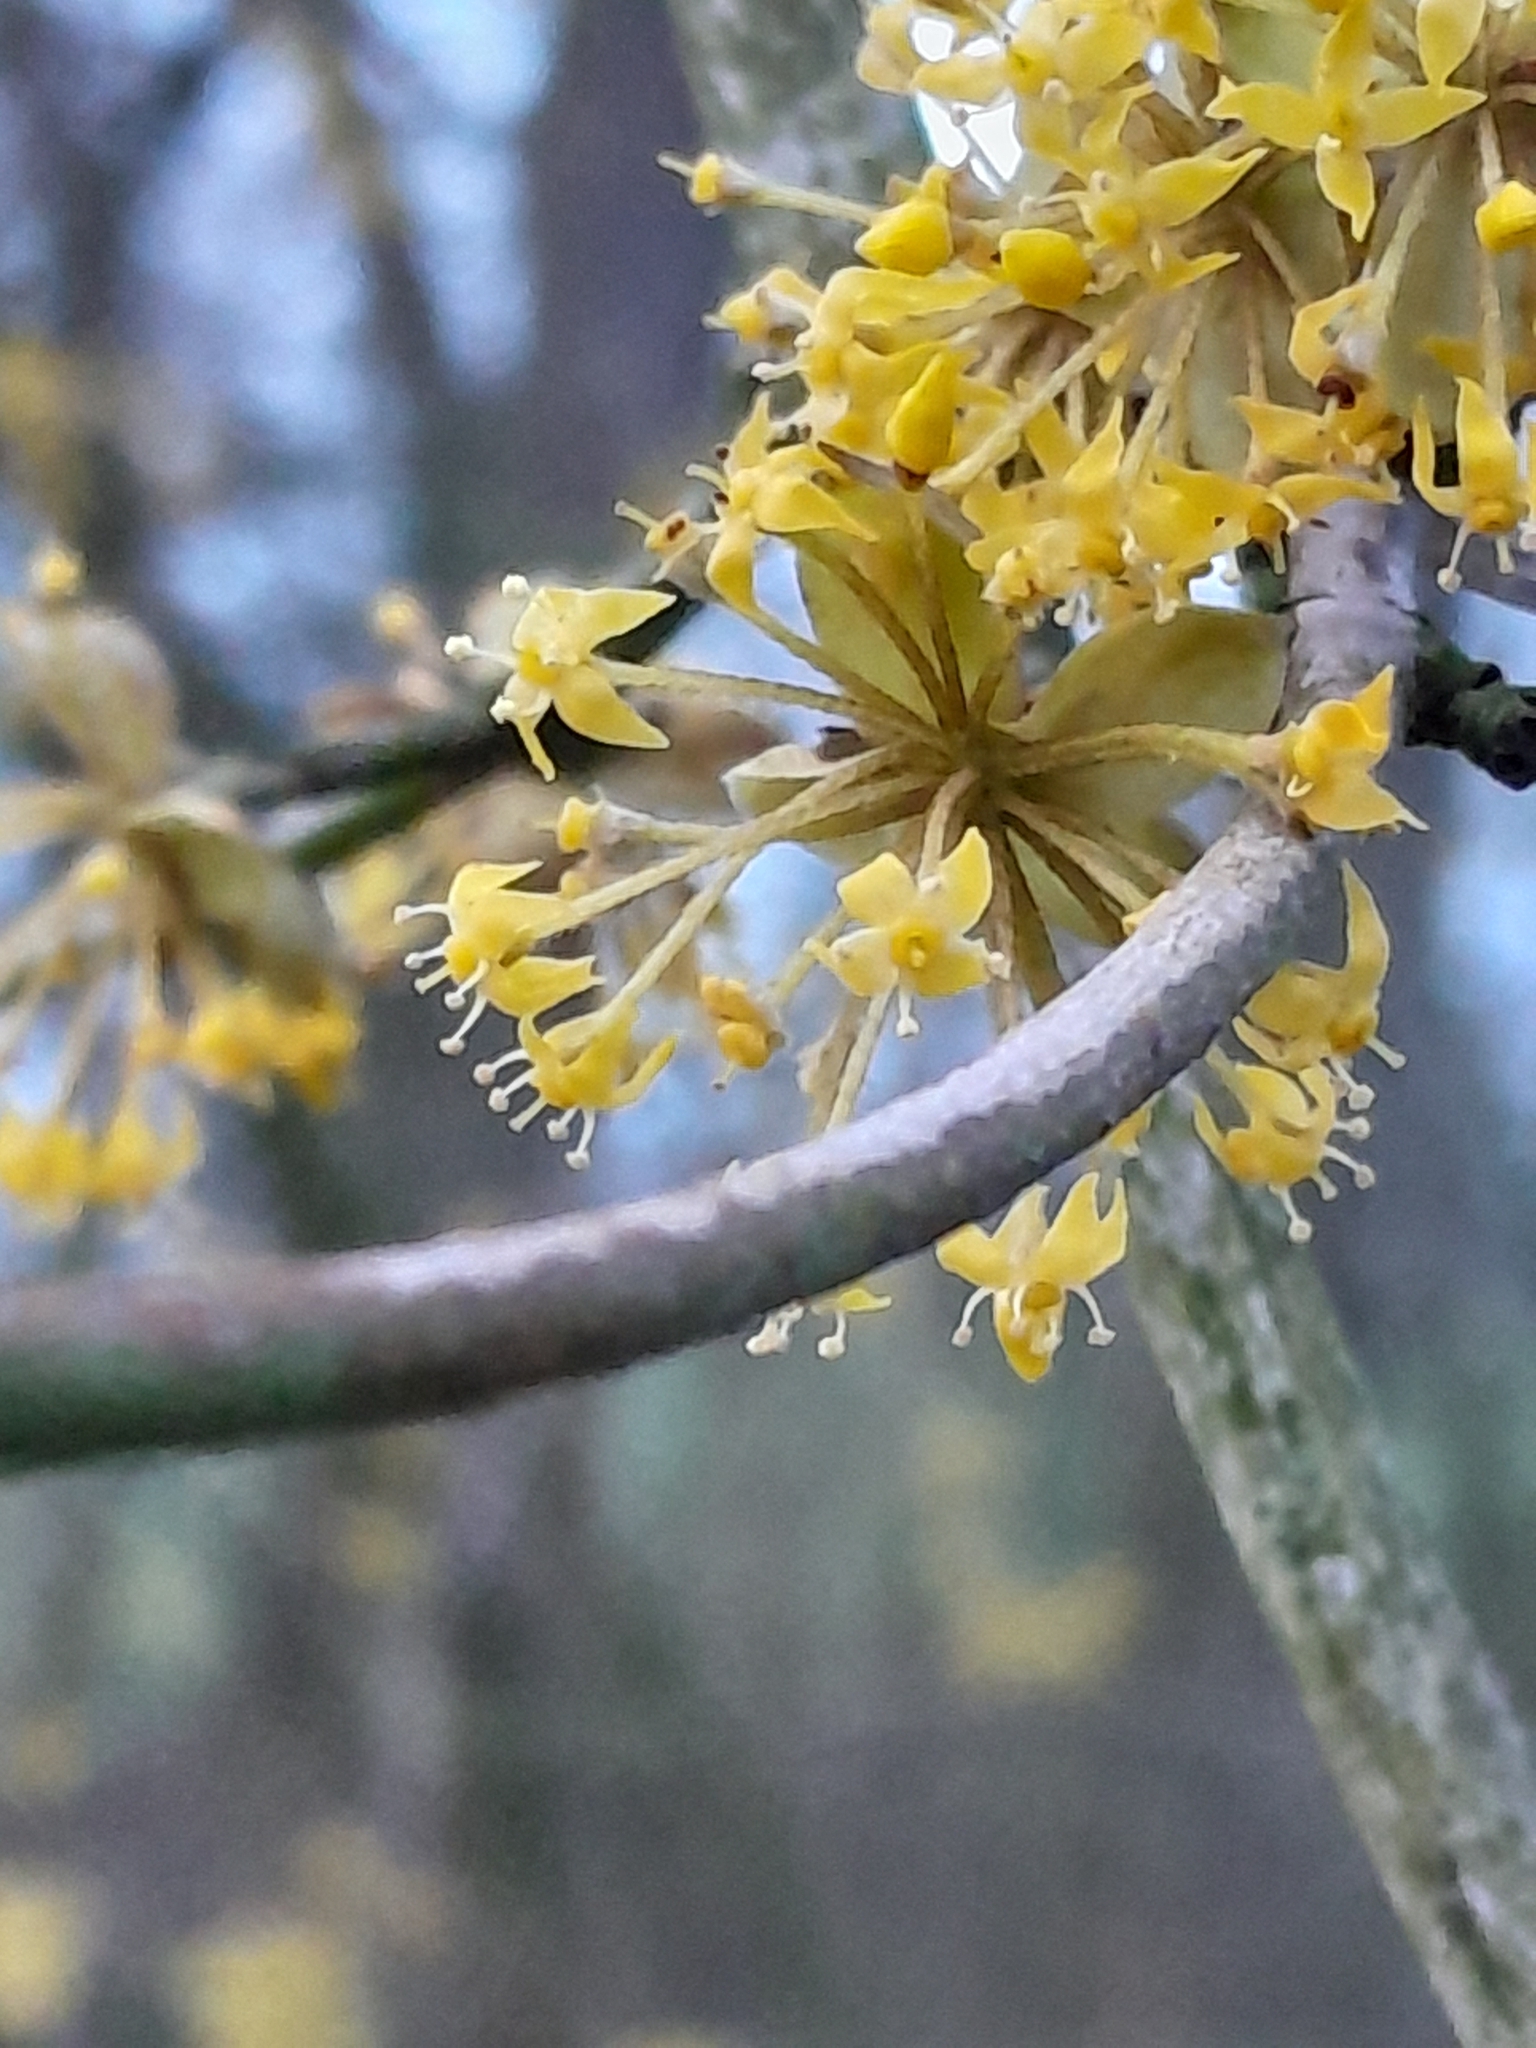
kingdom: Plantae
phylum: Tracheophyta
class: Magnoliopsida
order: Cornales
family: Cornaceae
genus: Cornus
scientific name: Cornus mas
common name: Cornelian-cherry
